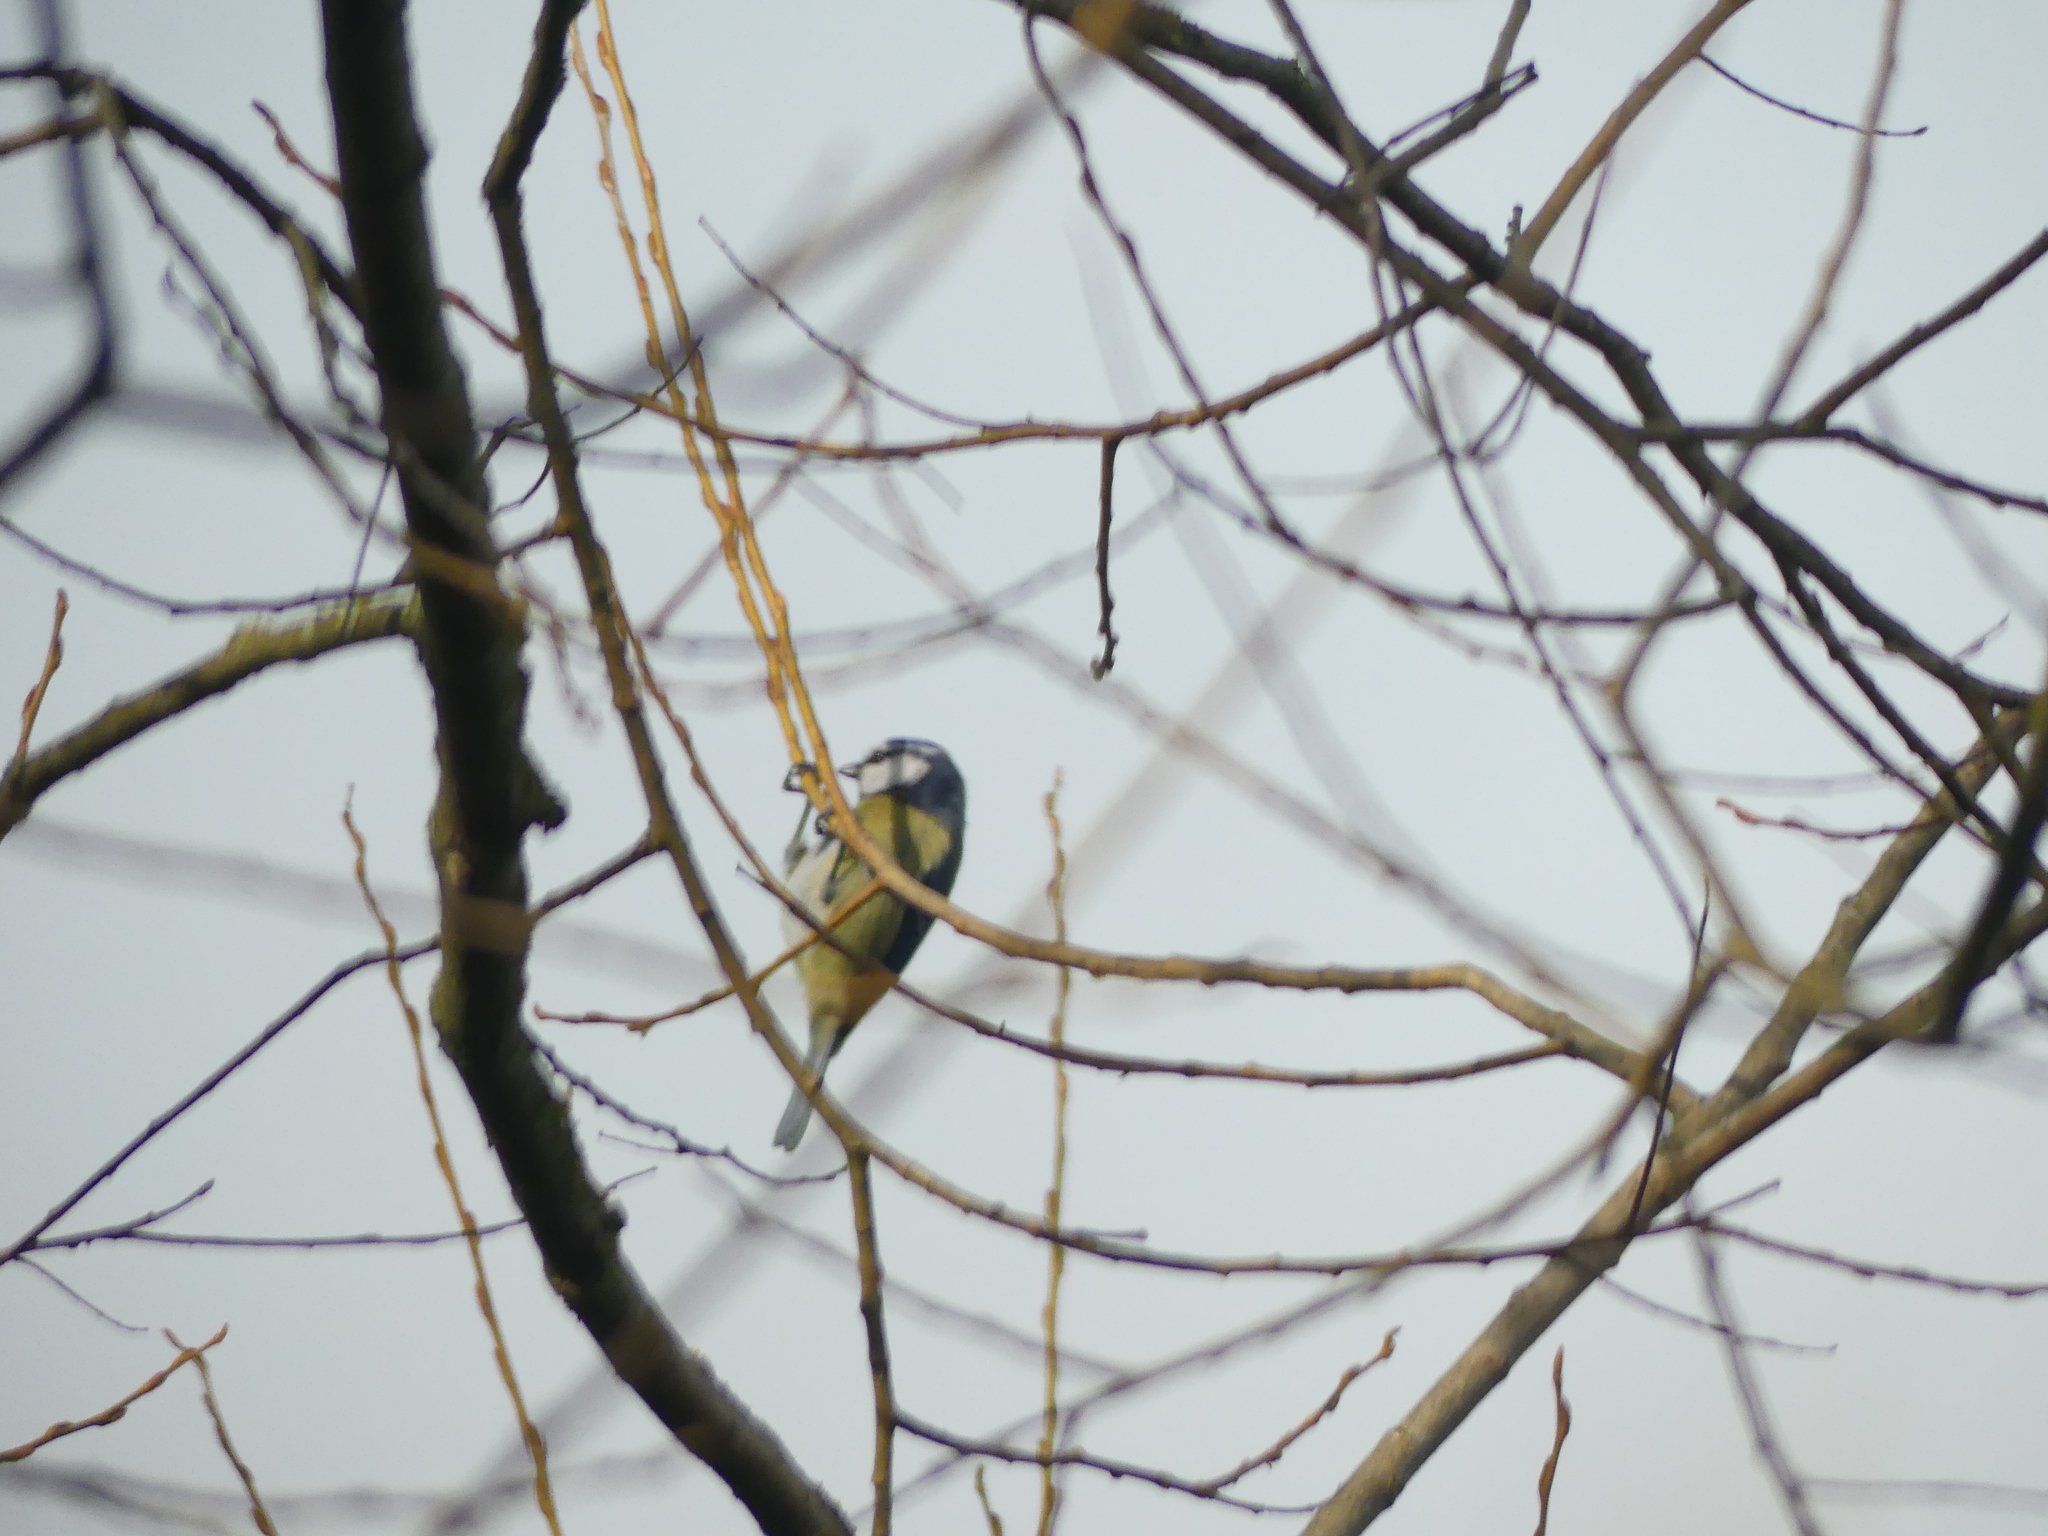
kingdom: Animalia
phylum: Chordata
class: Aves
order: Passeriformes
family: Paridae
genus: Cyanistes
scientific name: Cyanistes caeruleus
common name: Eurasian blue tit
